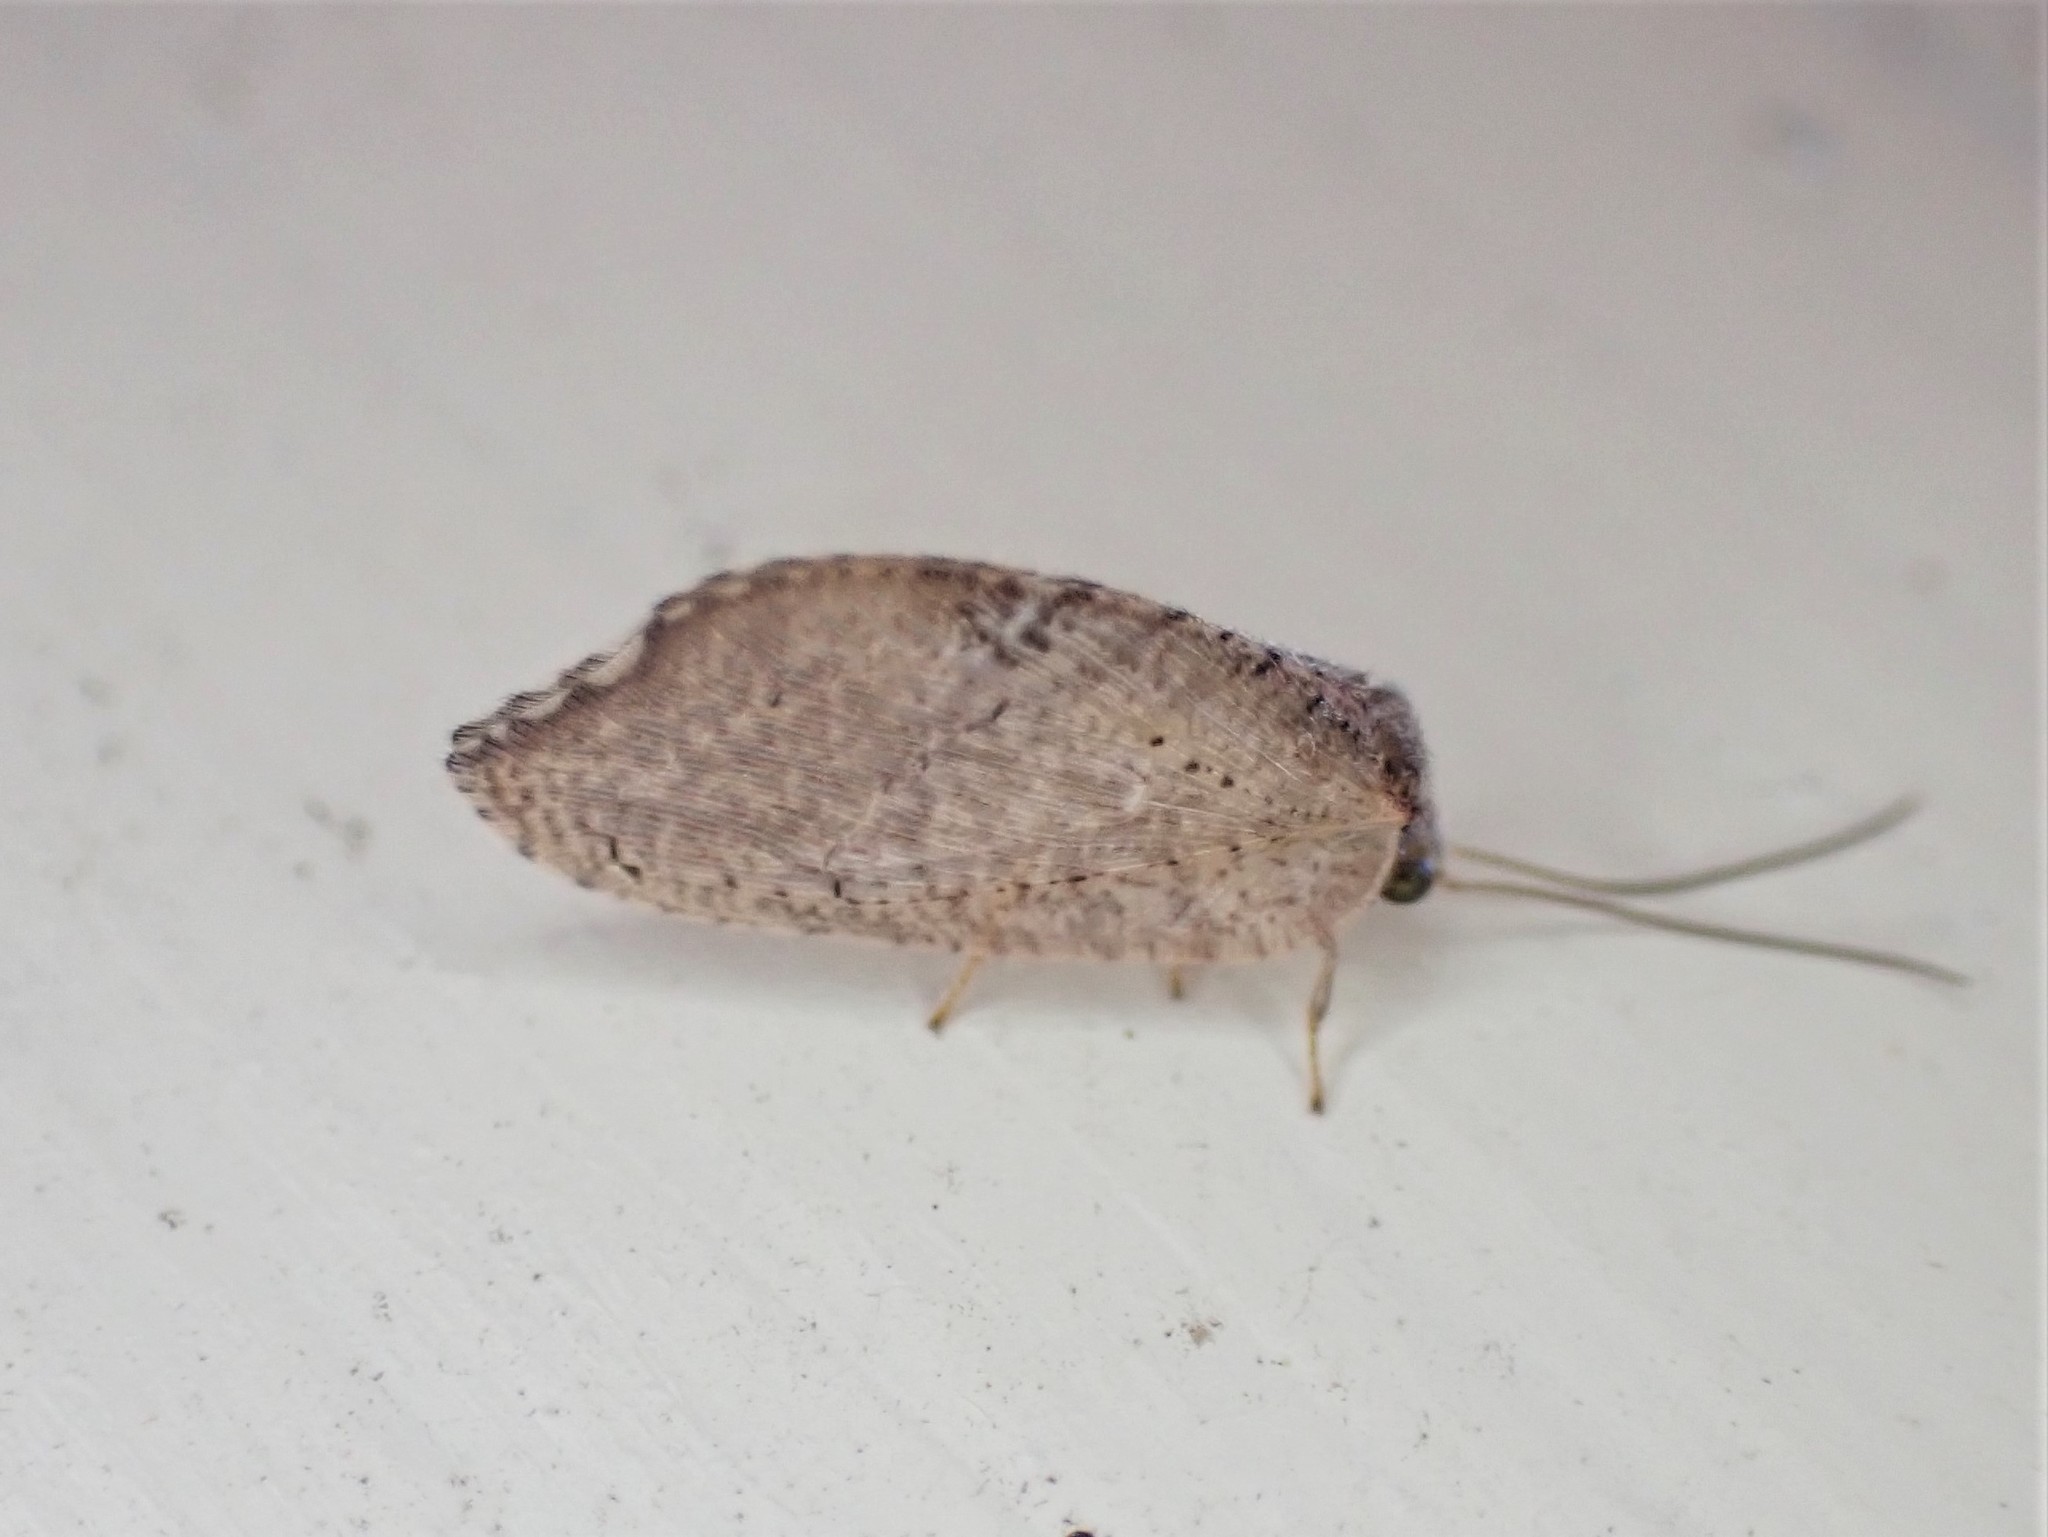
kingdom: Animalia
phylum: Arthropoda
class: Insecta
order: Neuroptera
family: Hemerobiidae
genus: Drepanacra
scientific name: Drepanacra binocula
